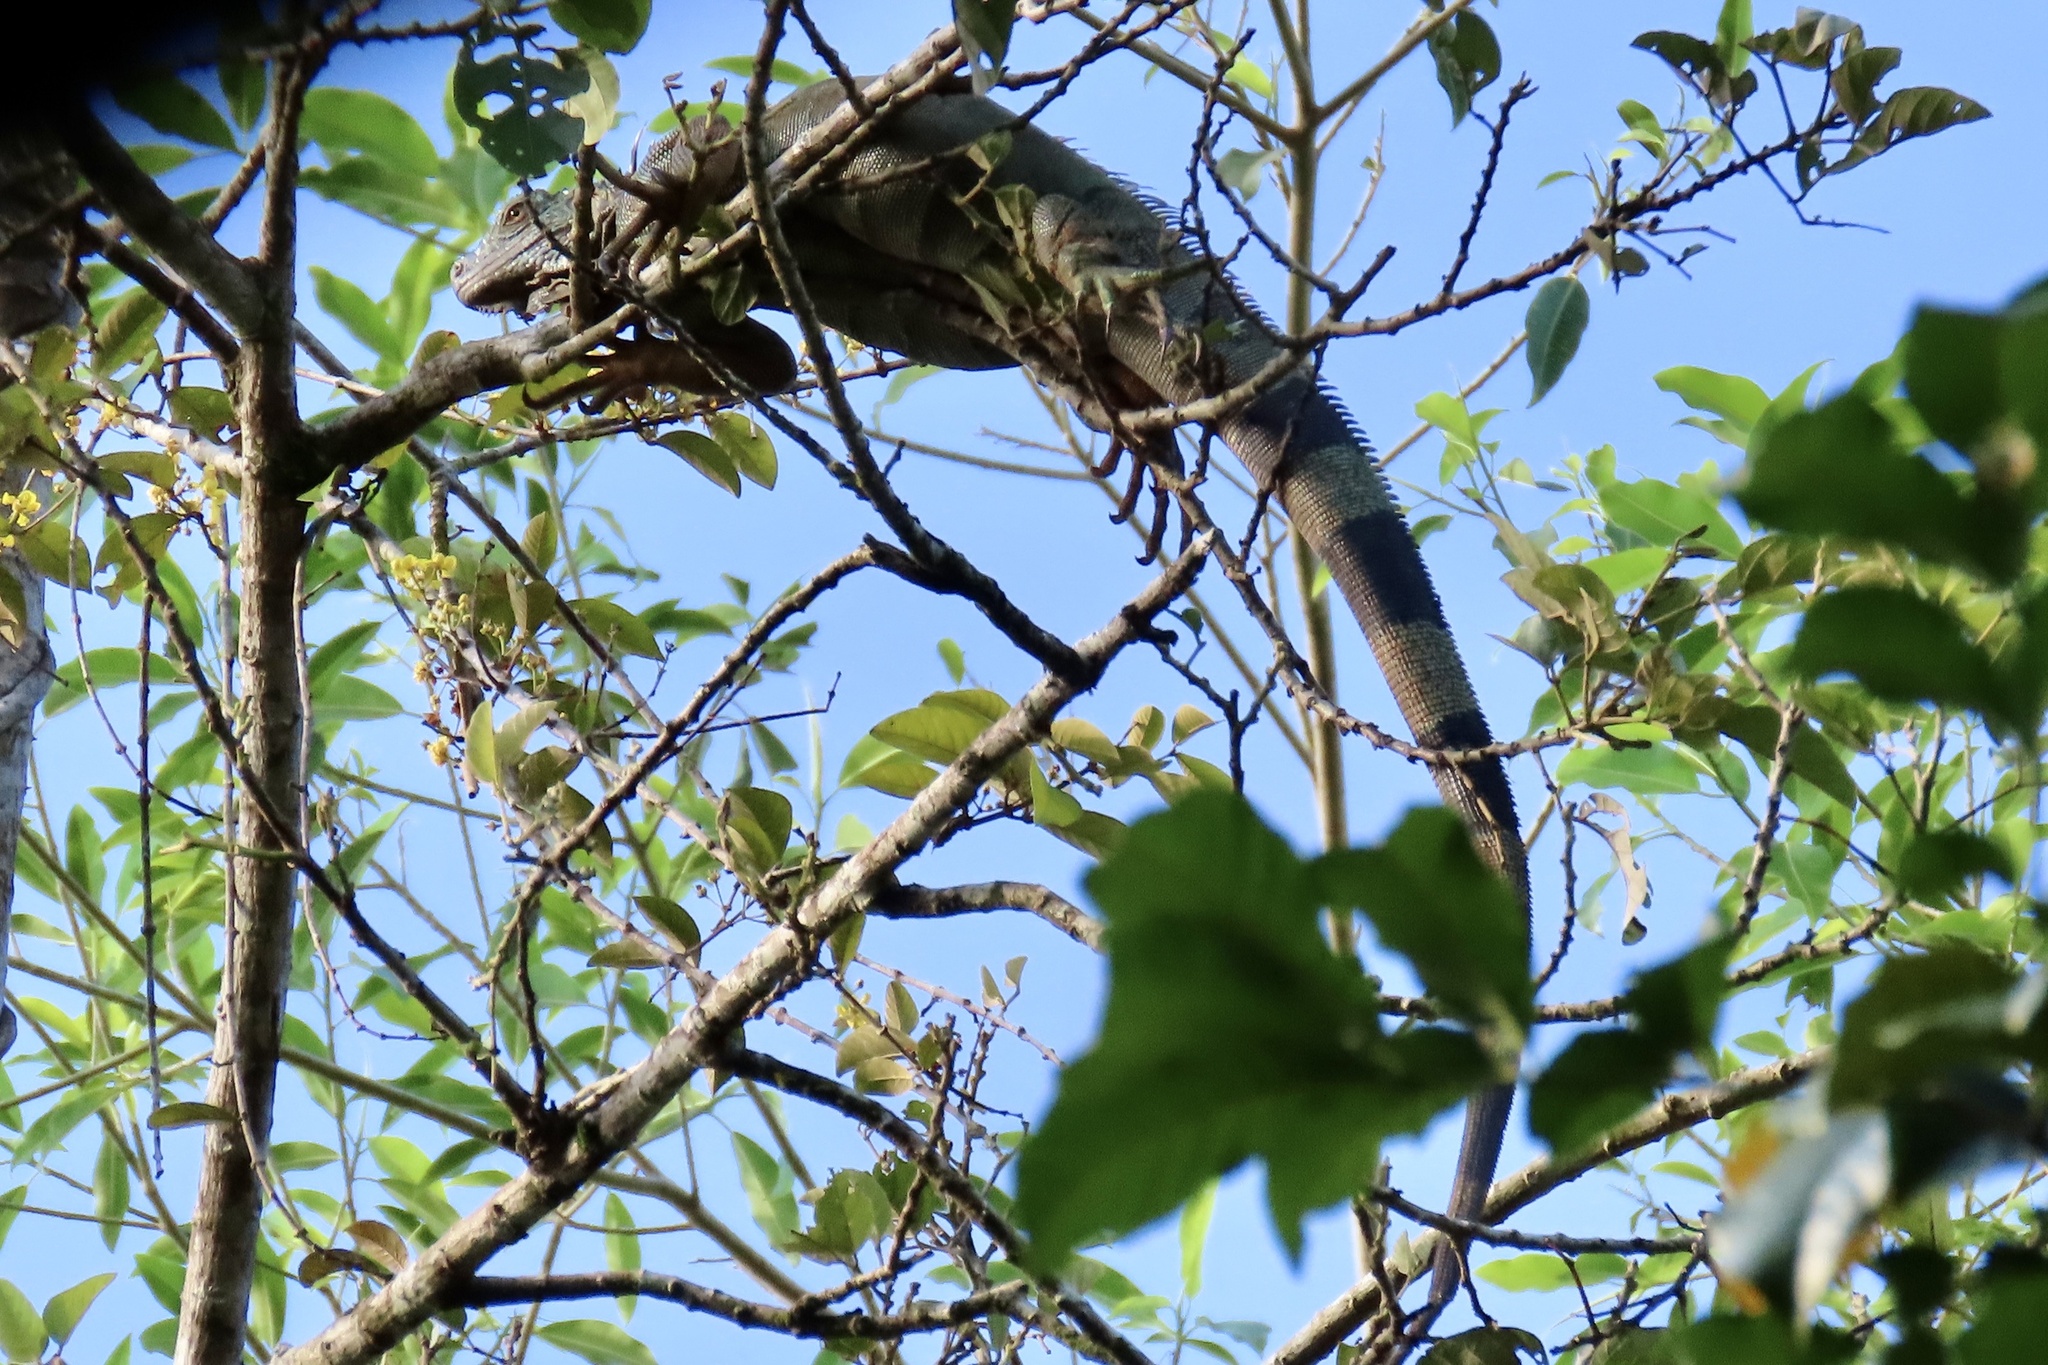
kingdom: Animalia
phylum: Chordata
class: Squamata
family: Iguanidae
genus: Iguana
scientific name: Iguana iguana
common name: Green iguana
